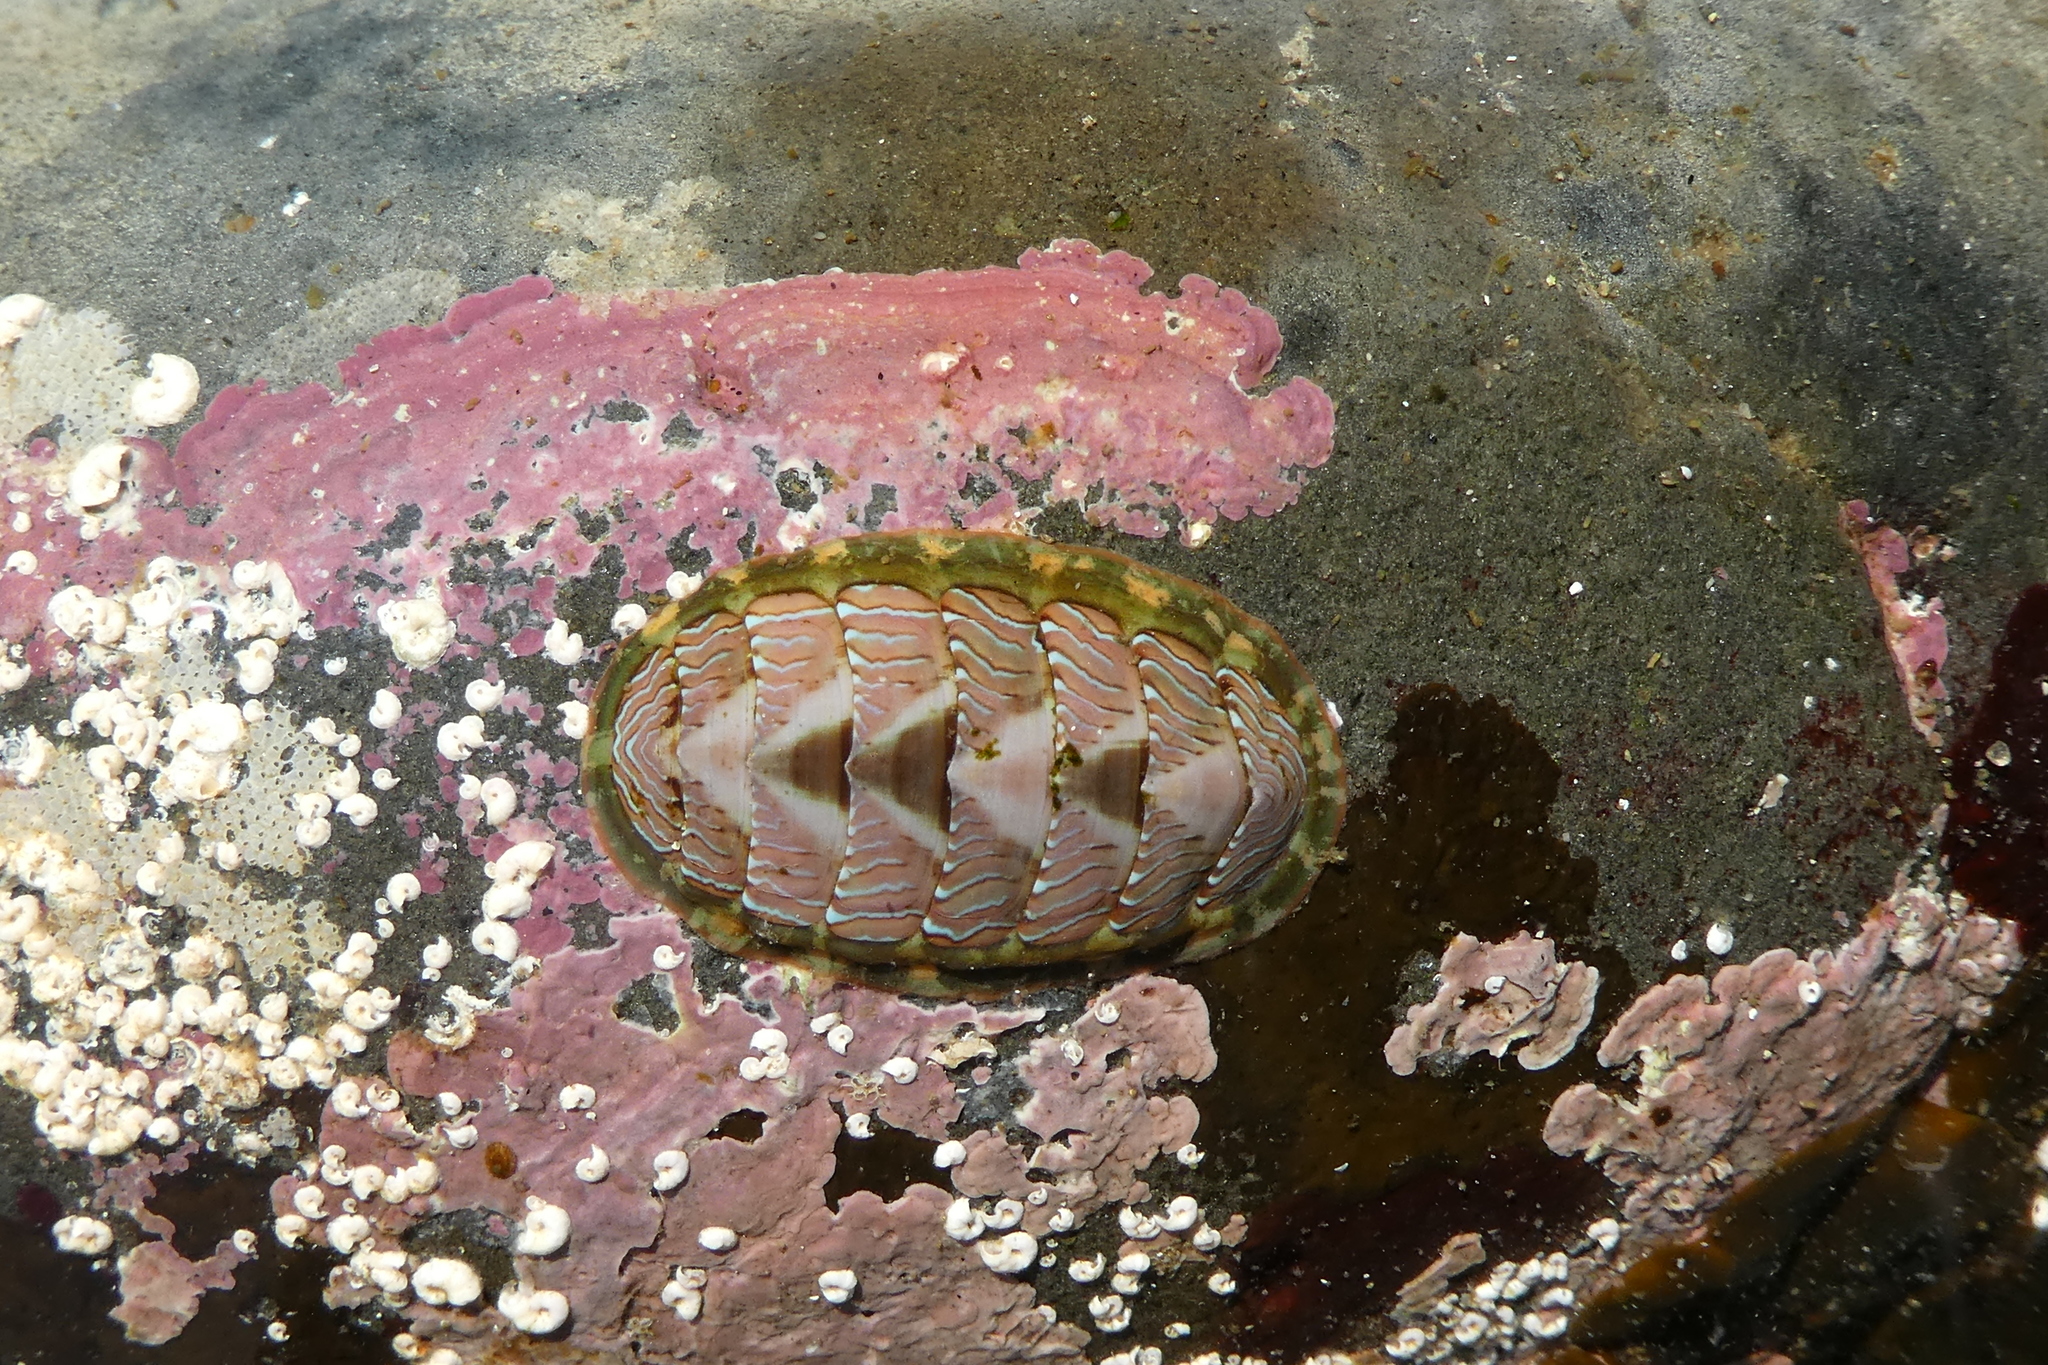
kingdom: Animalia
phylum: Mollusca
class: Polyplacophora
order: Chitonida
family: Tonicellidae
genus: Tonicella
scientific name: Tonicella lineata
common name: Lined chiton
